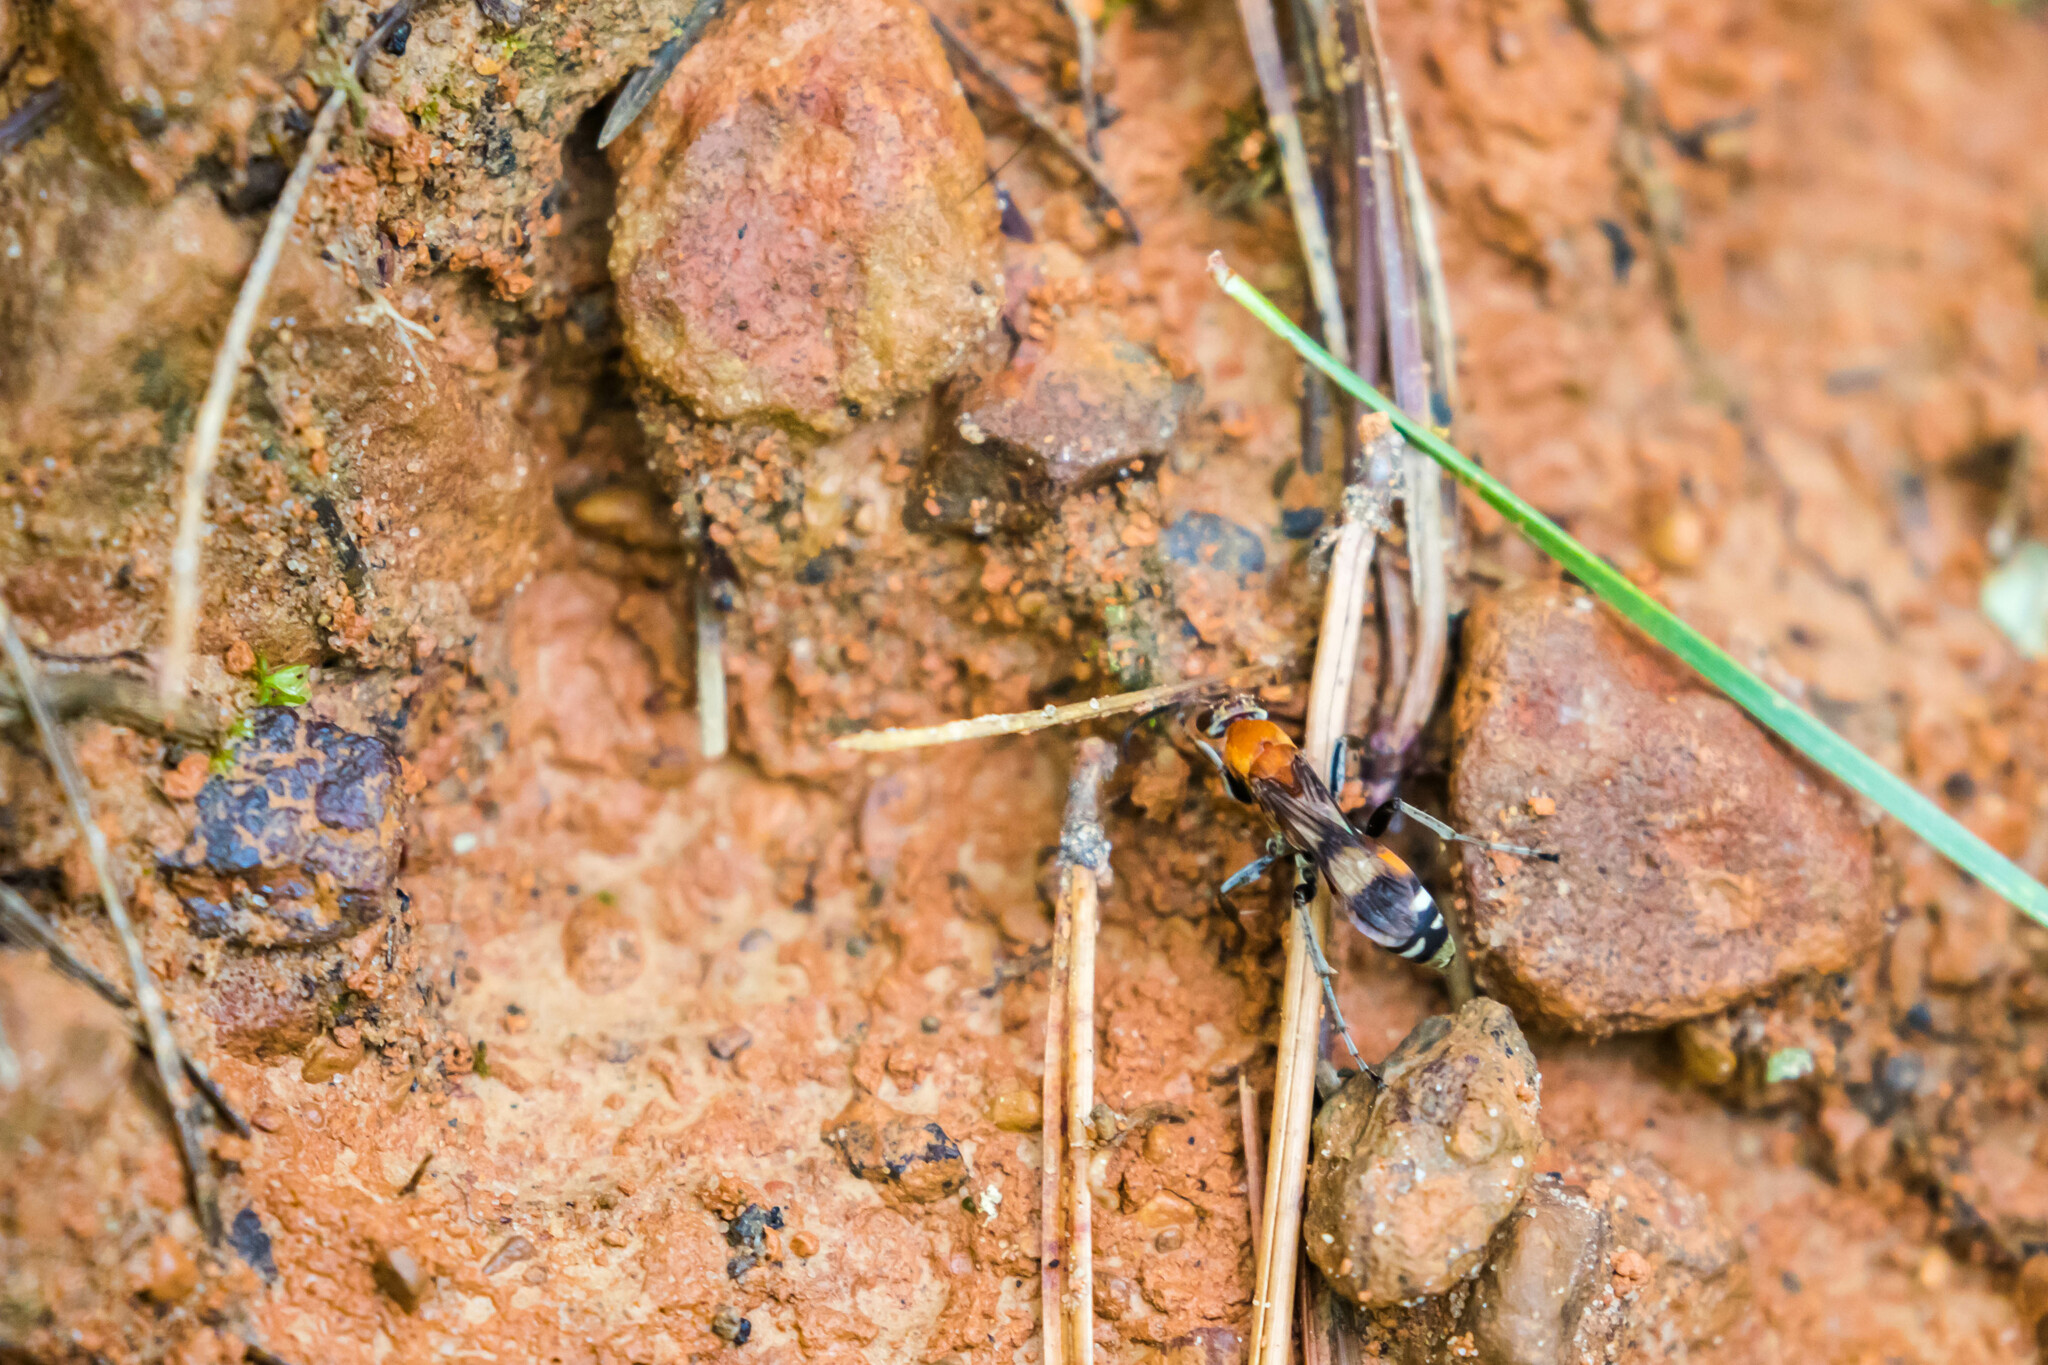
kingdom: Animalia
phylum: Arthropoda
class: Insecta
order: Hymenoptera
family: Pompilidae
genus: Psorthaspis
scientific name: Psorthaspis legata
